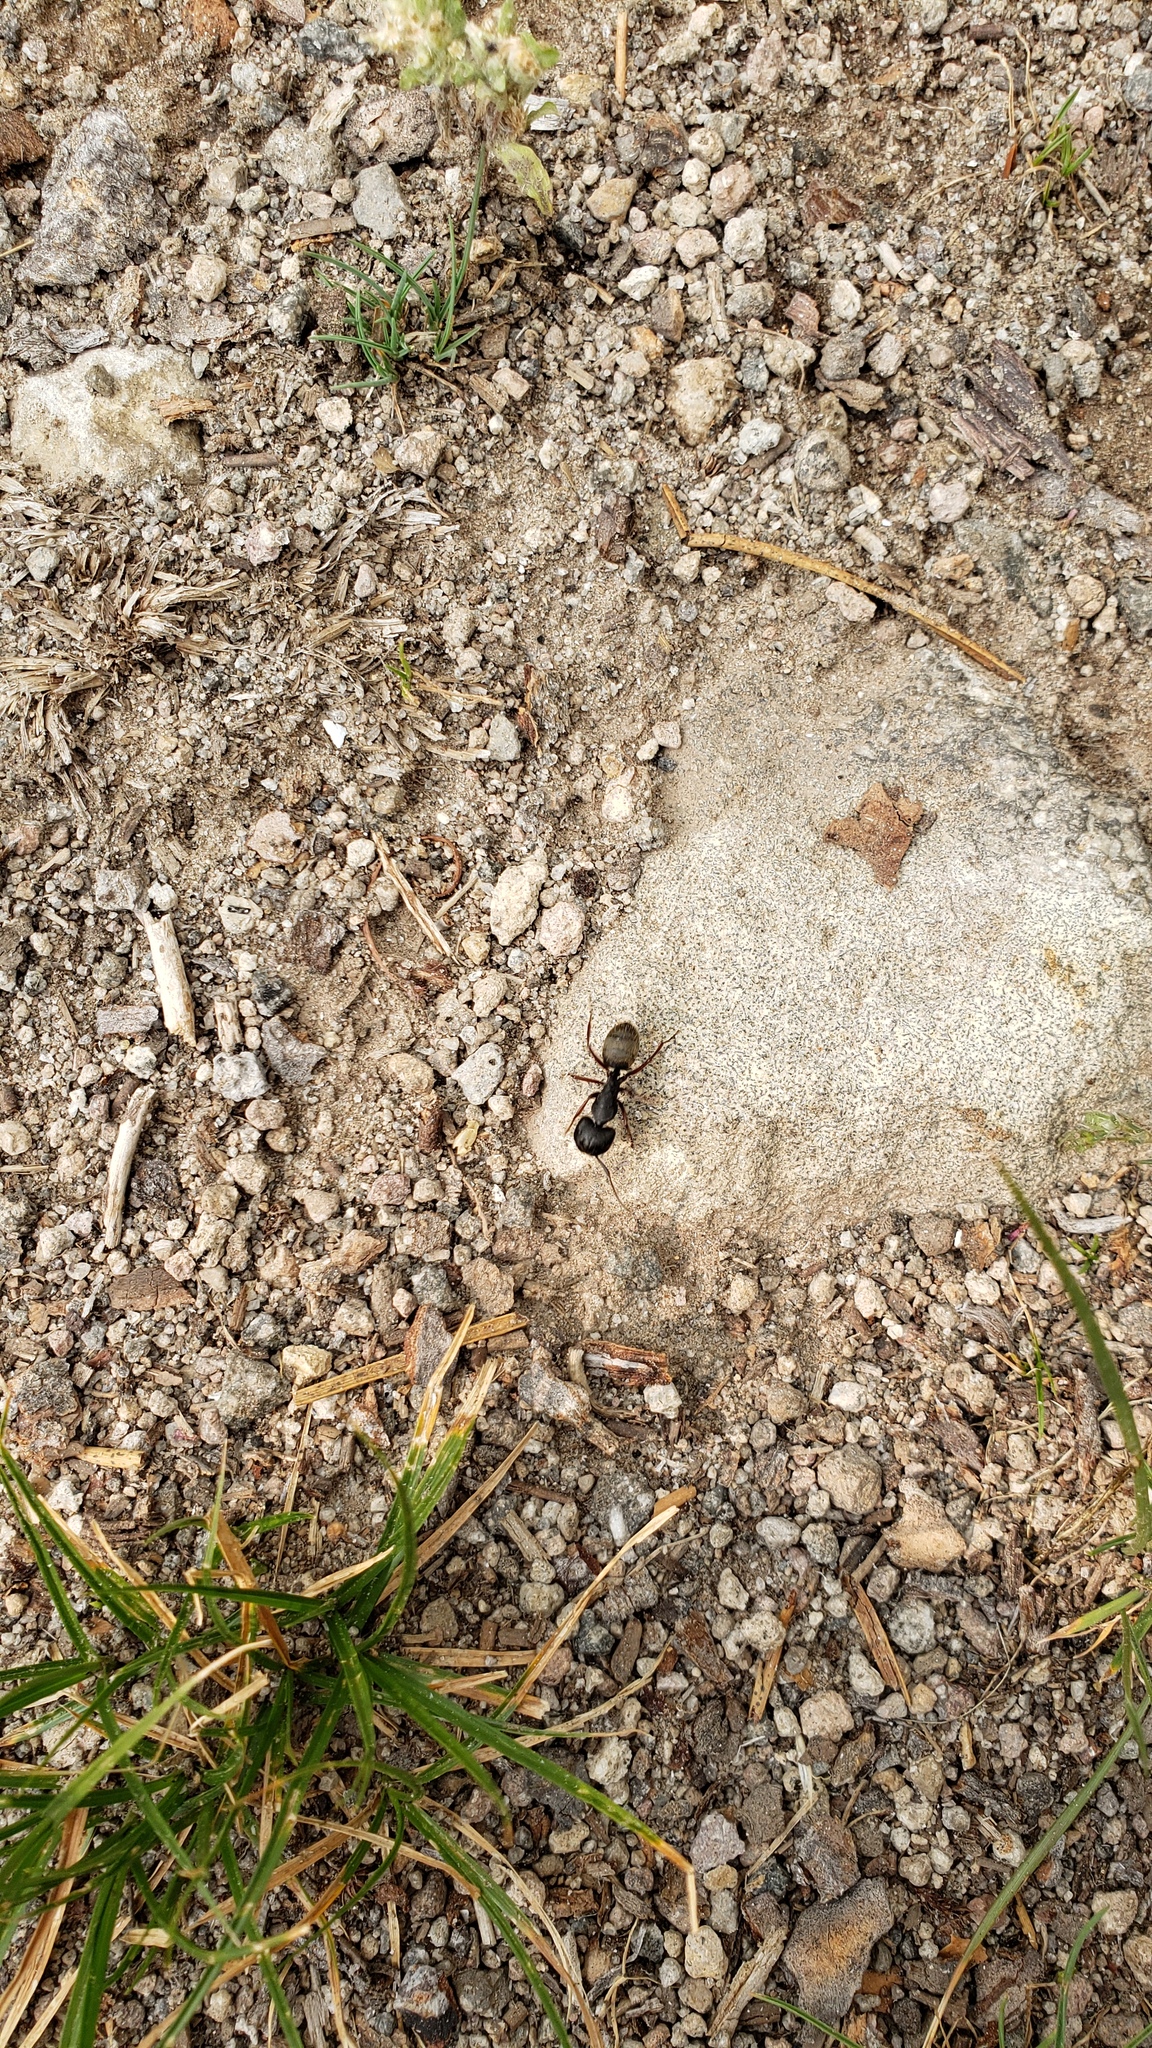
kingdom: Animalia
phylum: Arthropoda
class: Insecta
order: Hymenoptera
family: Formicidae
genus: Camponotus
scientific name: Camponotus modoc
